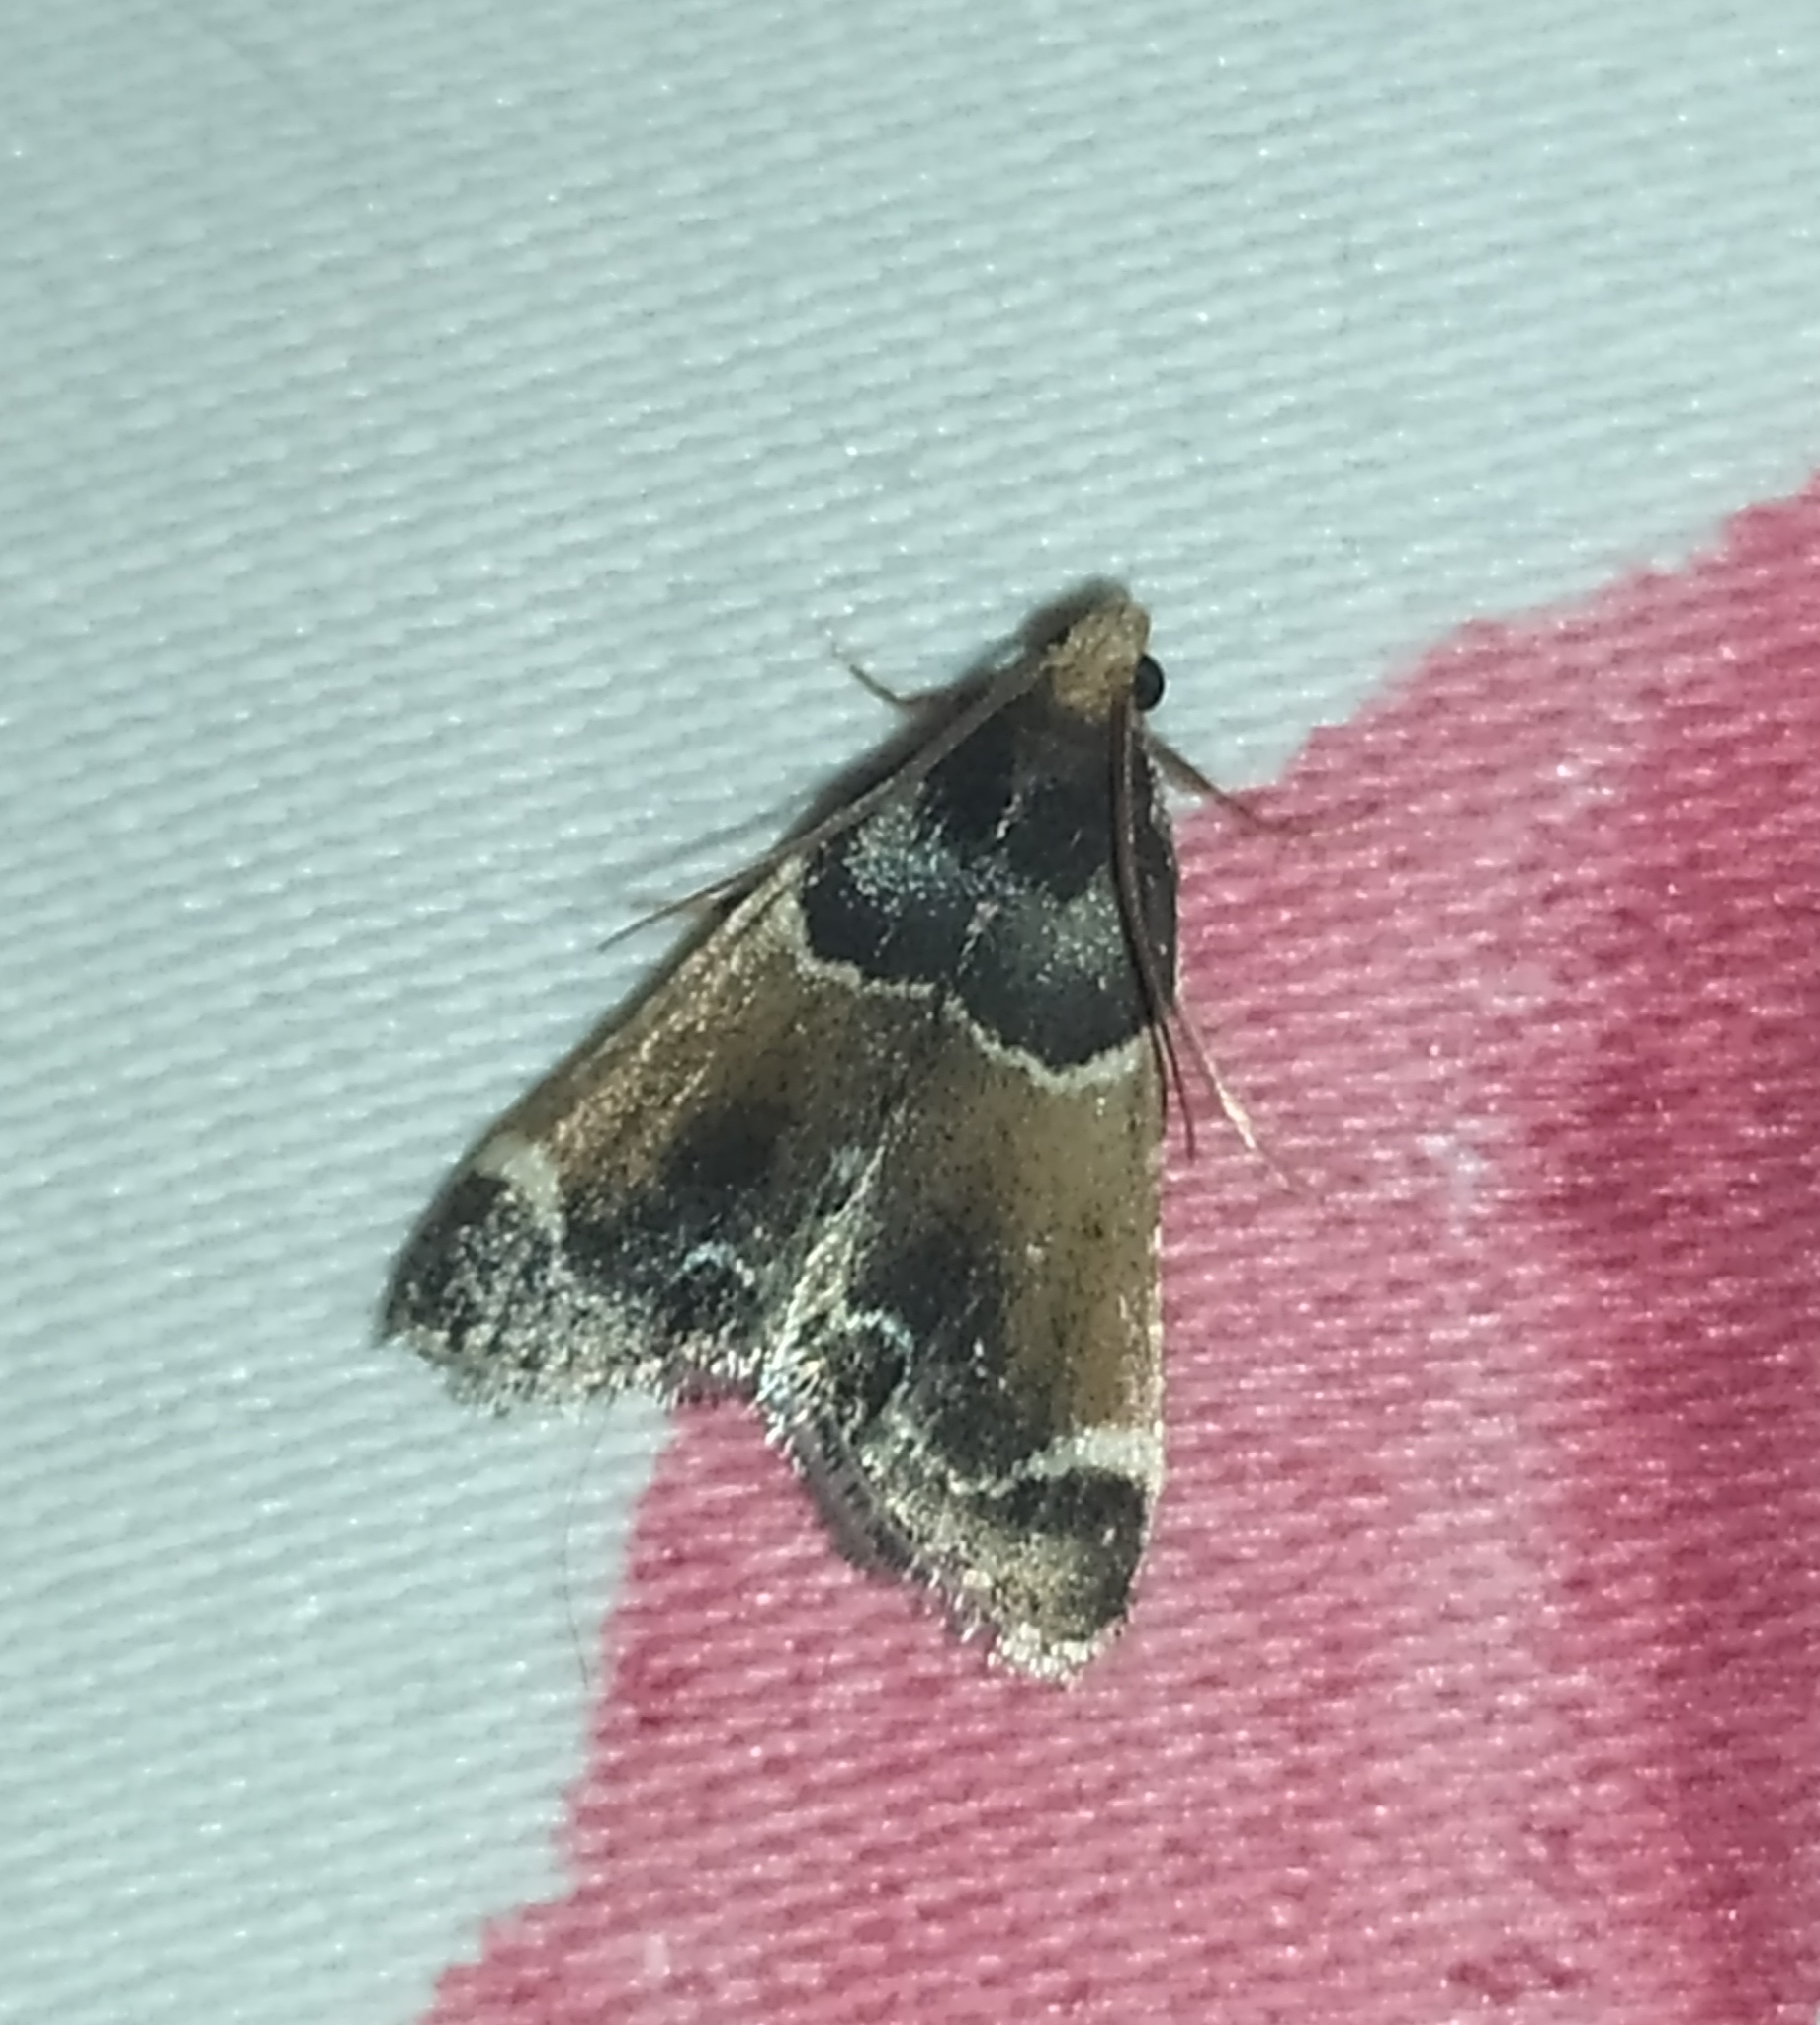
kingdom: Animalia
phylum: Arthropoda
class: Insecta
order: Lepidoptera
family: Pyralidae
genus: Pyralis
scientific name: Pyralis farinalis
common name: Meal moth
